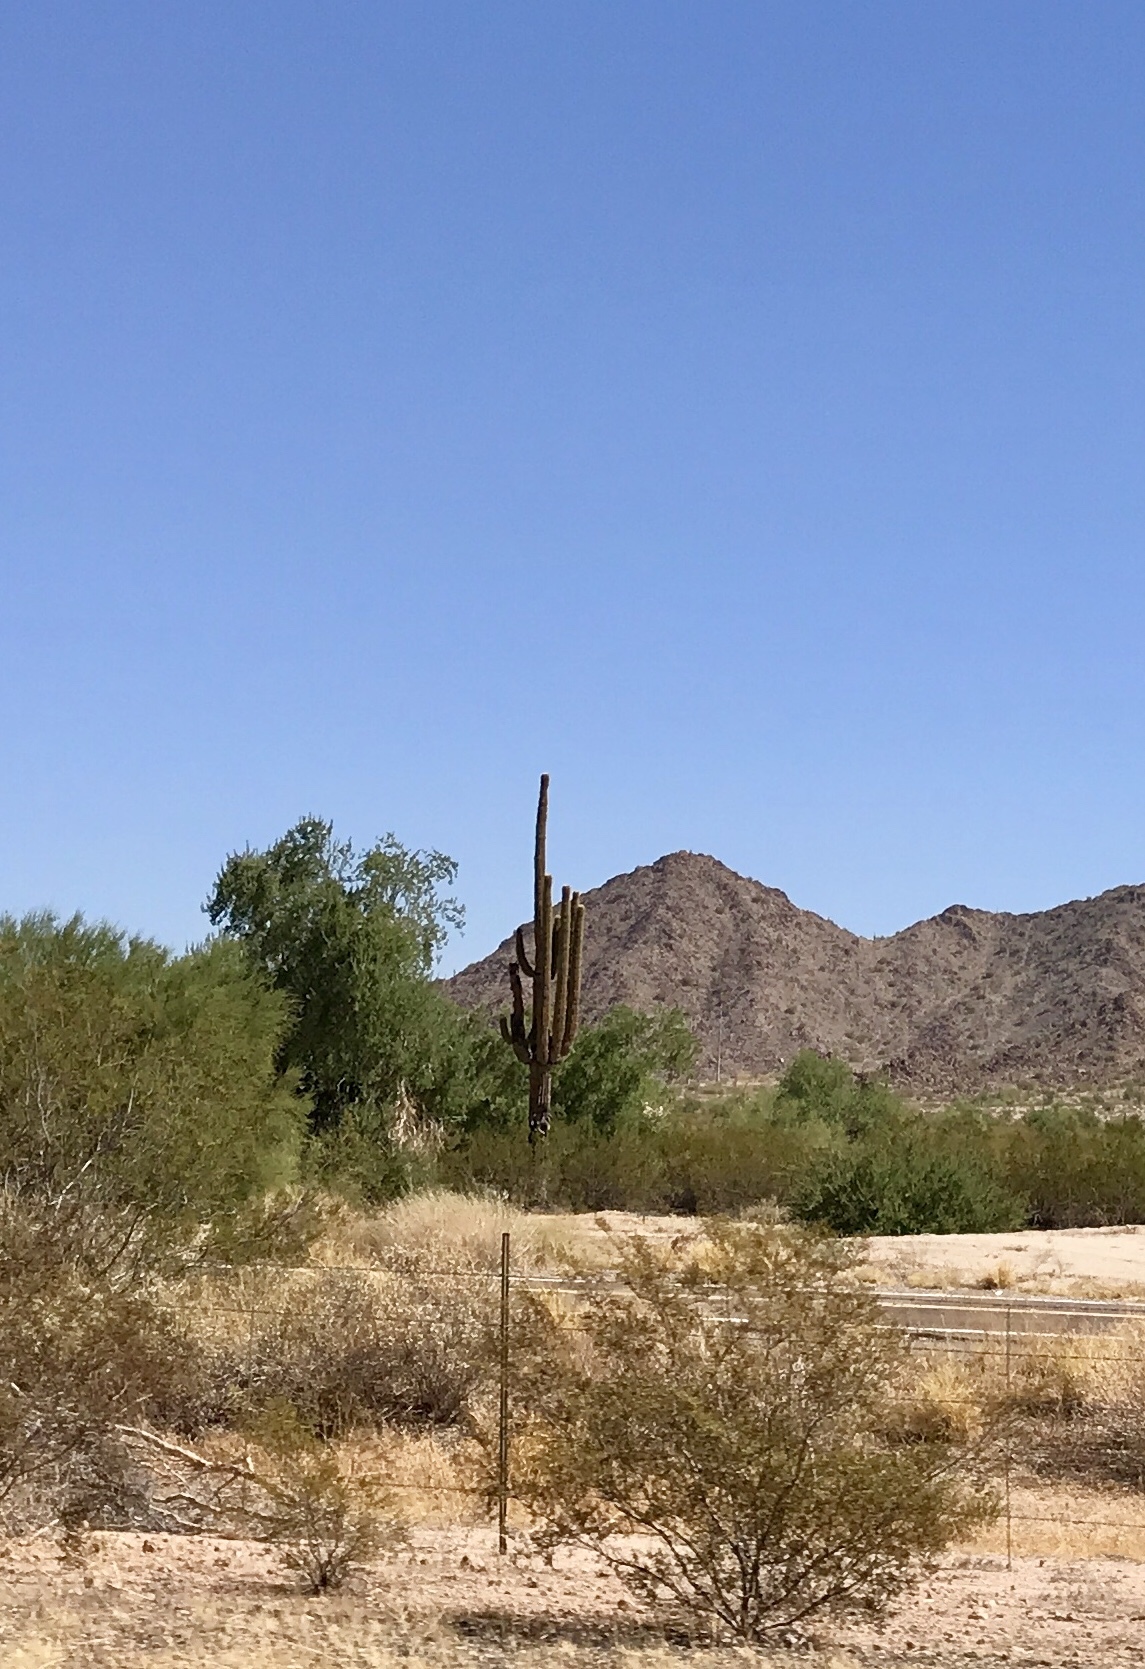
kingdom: Plantae
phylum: Tracheophyta
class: Magnoliopsida
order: Caryophyllales
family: Cactaceae
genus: Carnegiea
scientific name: Carnegiea gigantea
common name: Saguaro
